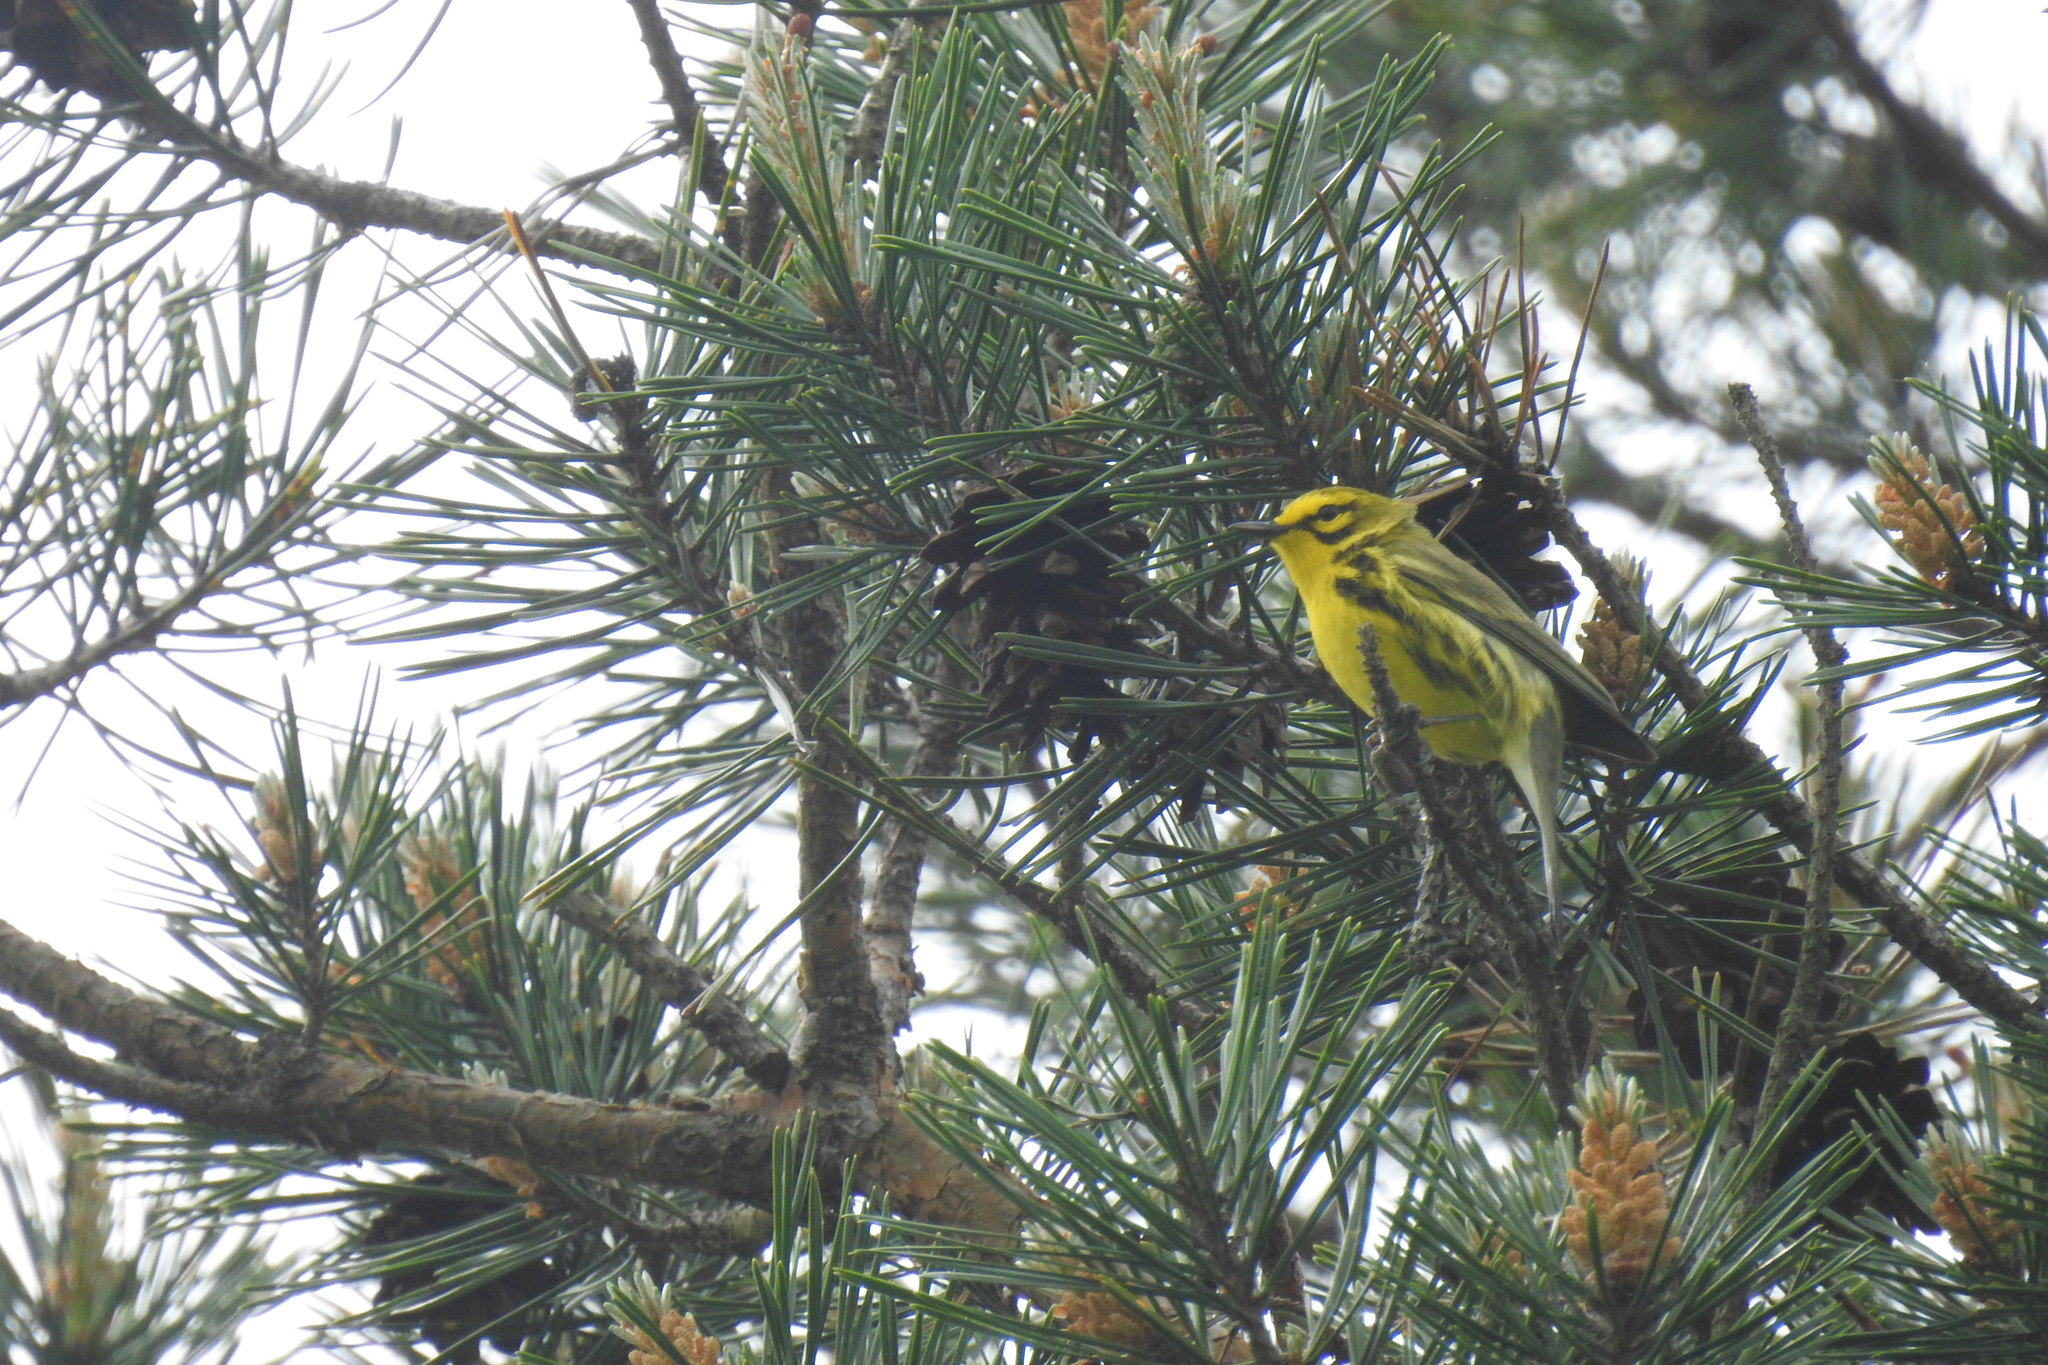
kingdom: Animalia
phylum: Chordata
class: Aves
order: Passeriformes
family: Parulidae
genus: Setophaga
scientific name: Setophaga discolor
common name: Prairie warbler
